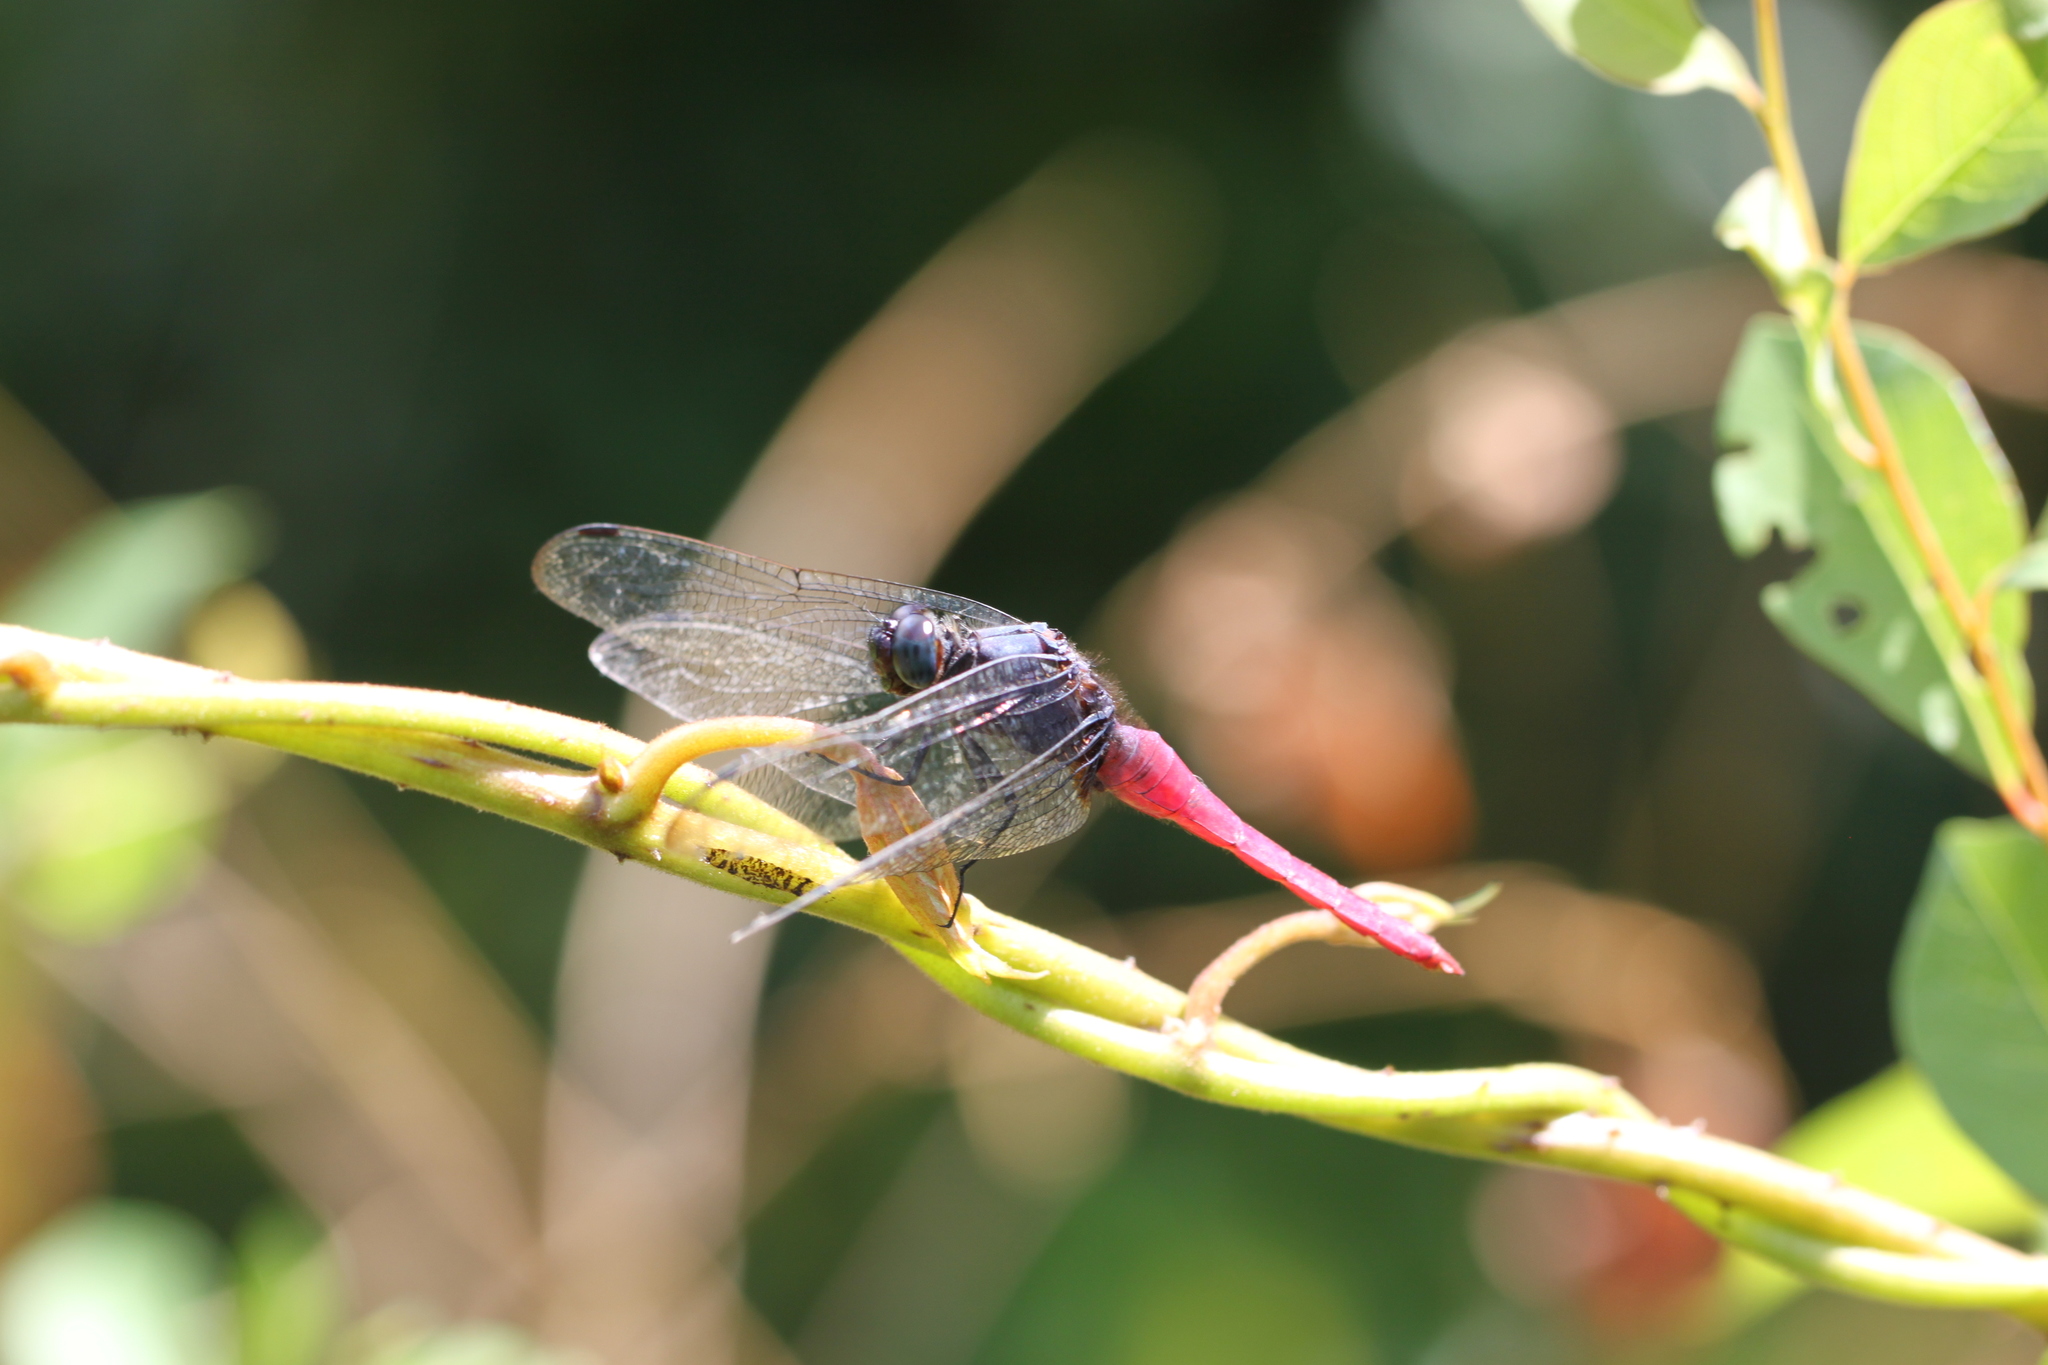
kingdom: Animalia
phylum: Arthropoda
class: Insecta
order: Odonata
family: Libellulidae
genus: Orthetrum
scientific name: Orthetrum pruinosum
